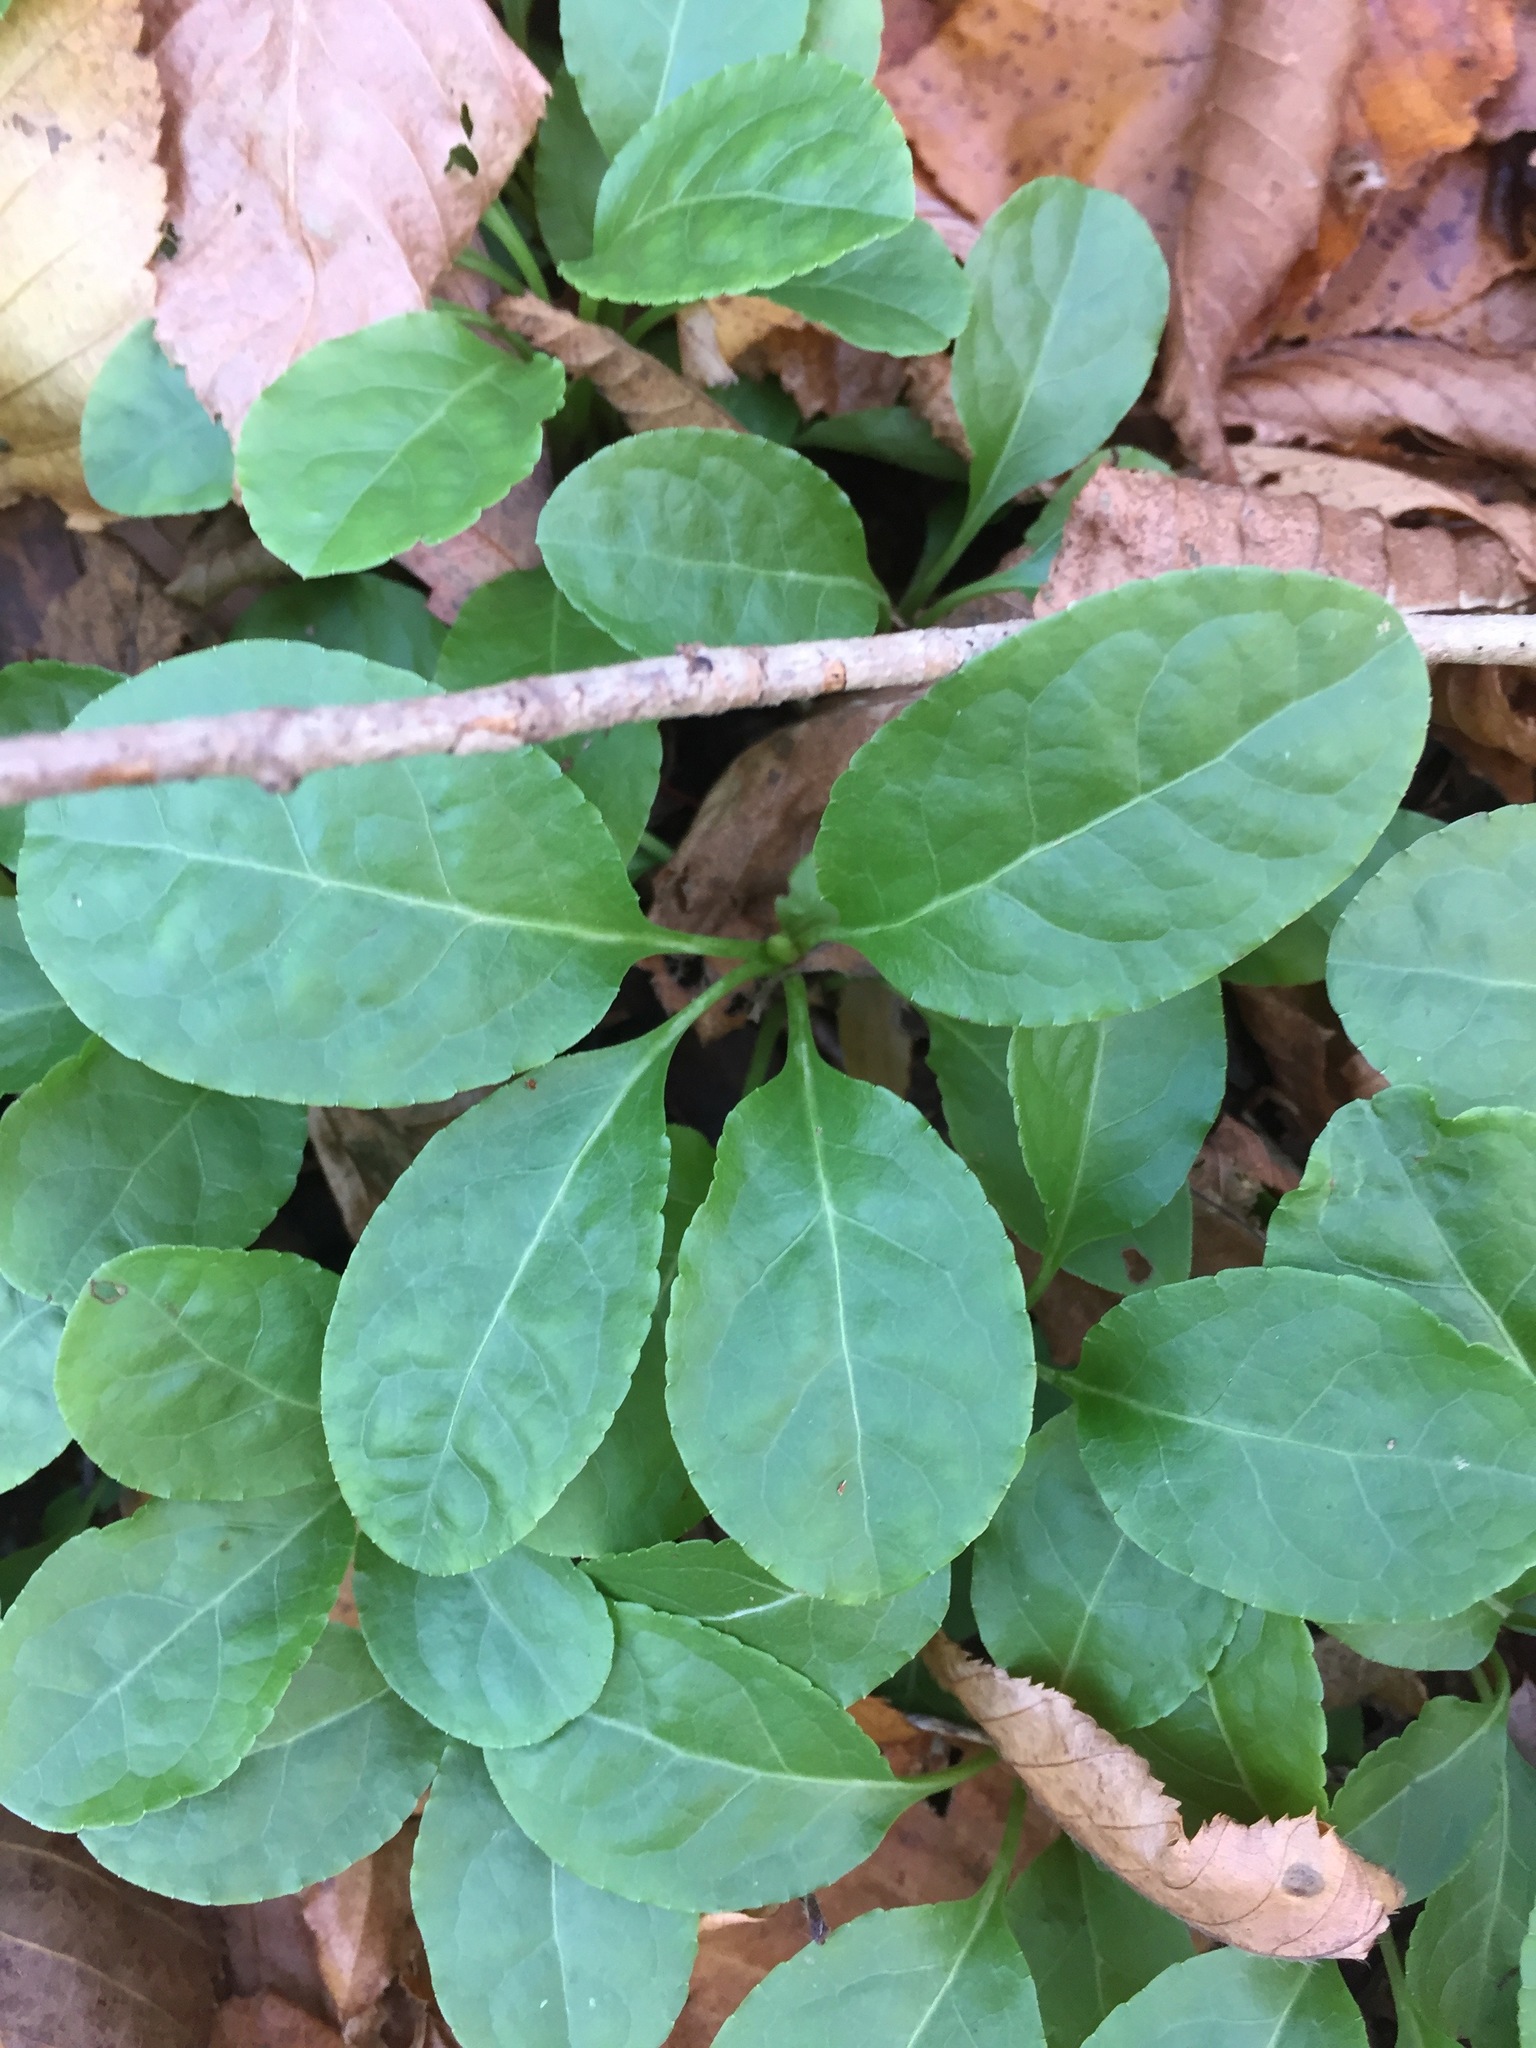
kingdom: Plantae
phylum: Tracheophyta
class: Magnoliopsida
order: Ericales
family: Ericaceae
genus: Pyrola
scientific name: Pyrola elliptica
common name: Shinleaf
